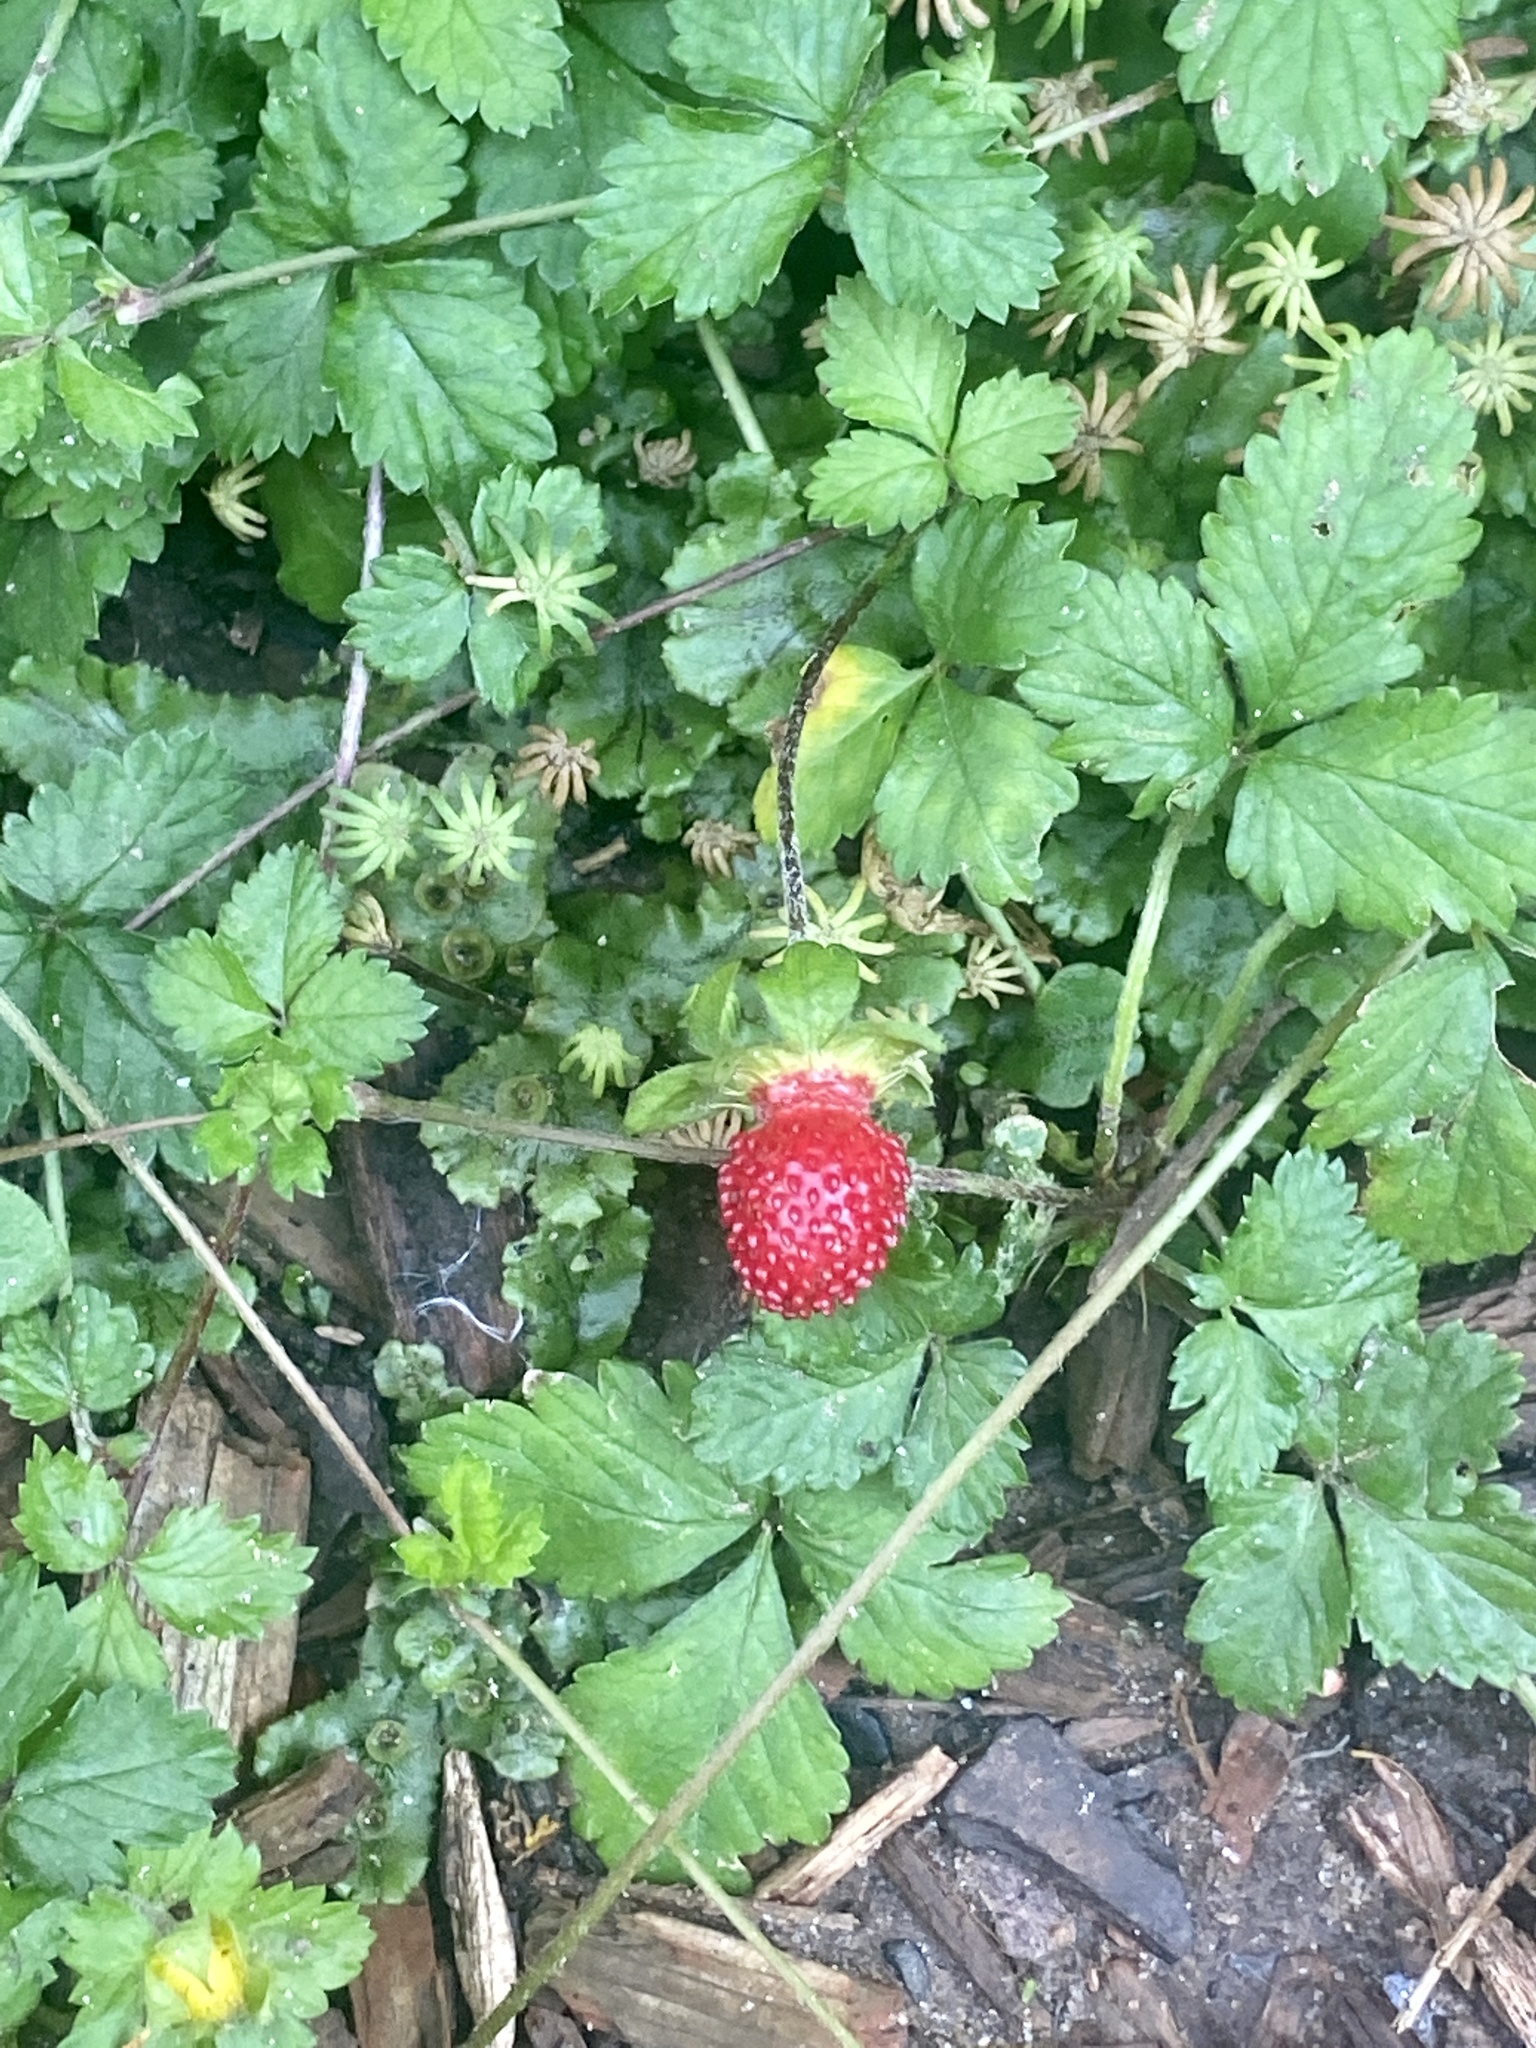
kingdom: Plantae
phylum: Tracheophyta
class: Magnoliopsida
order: Rosales
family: Rosaceae
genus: Potentilla
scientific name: Potentilla indica
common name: Yellow-flowered strawberry
